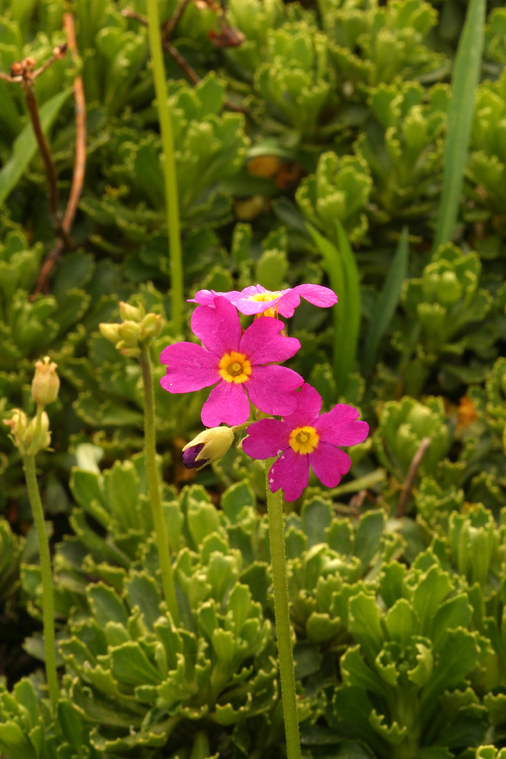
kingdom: Plantae
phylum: Tracheophyta
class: Magnoliopsida
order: Ericales
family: Primulaceae
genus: Primula
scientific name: Primula suffrutescens
